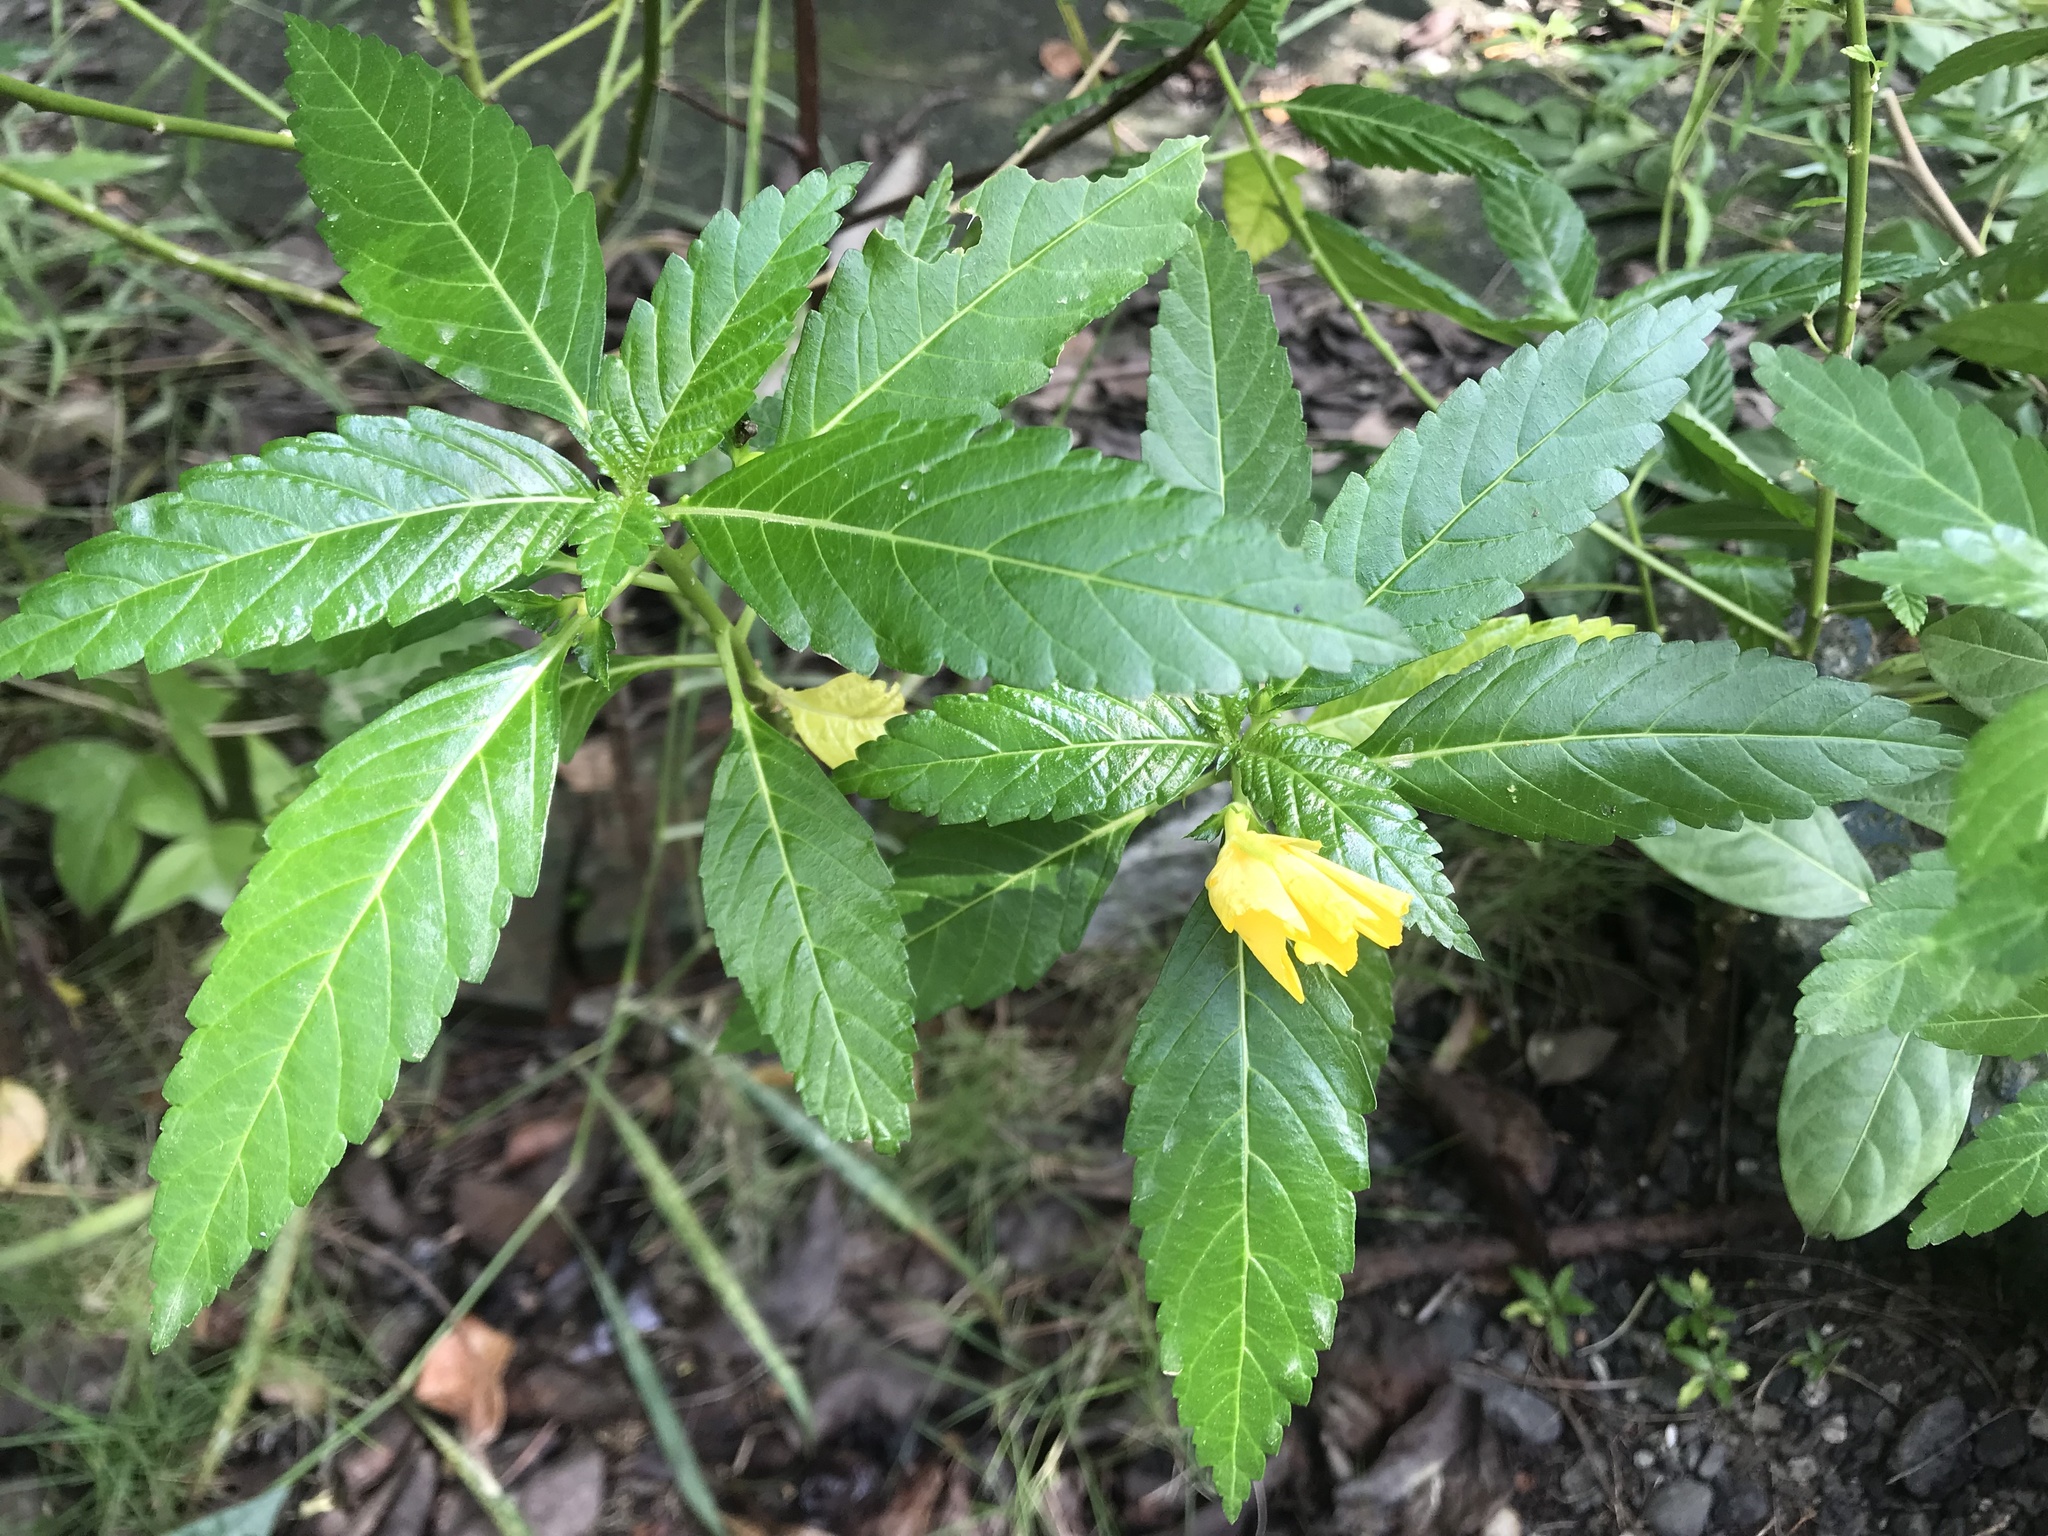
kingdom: Plantae
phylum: Tracheophyta
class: Magnoliopsida
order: Malpighiales
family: Turneraceae
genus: Turnera
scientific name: Turnera ulmifolia
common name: Ramgoat dashalong
